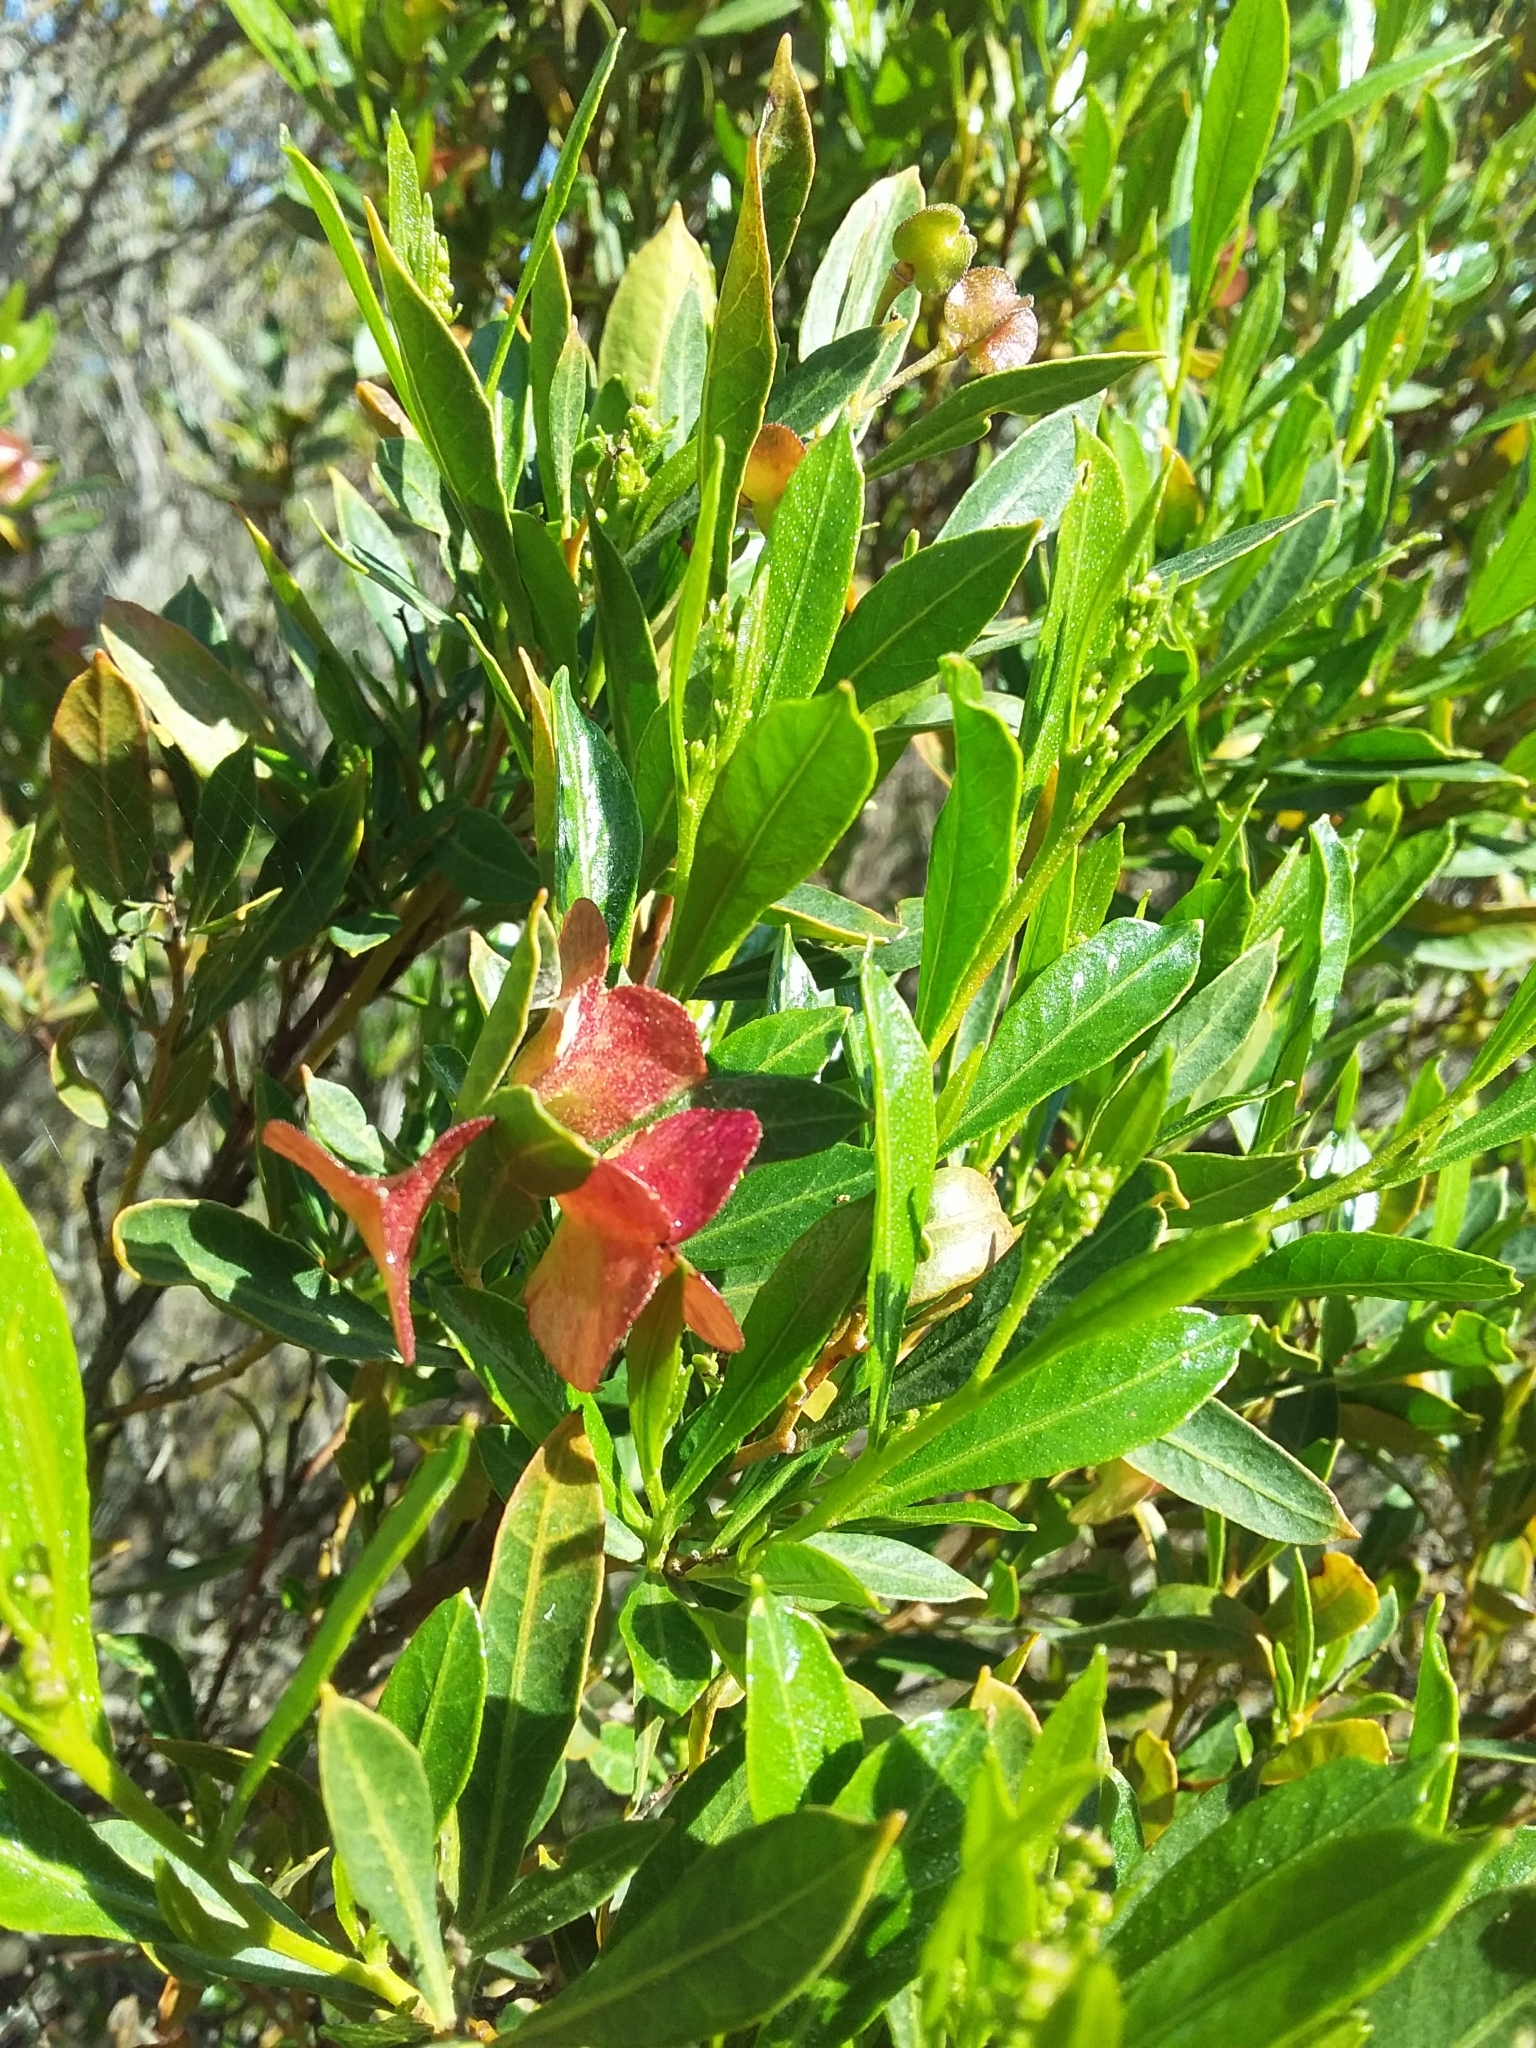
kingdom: Plantae
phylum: Tracheophyta
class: Magnoliopsida
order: Sapindales
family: Sapindaceae
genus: Dodonaea
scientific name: Dodonaea viscosa
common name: Hopbush
